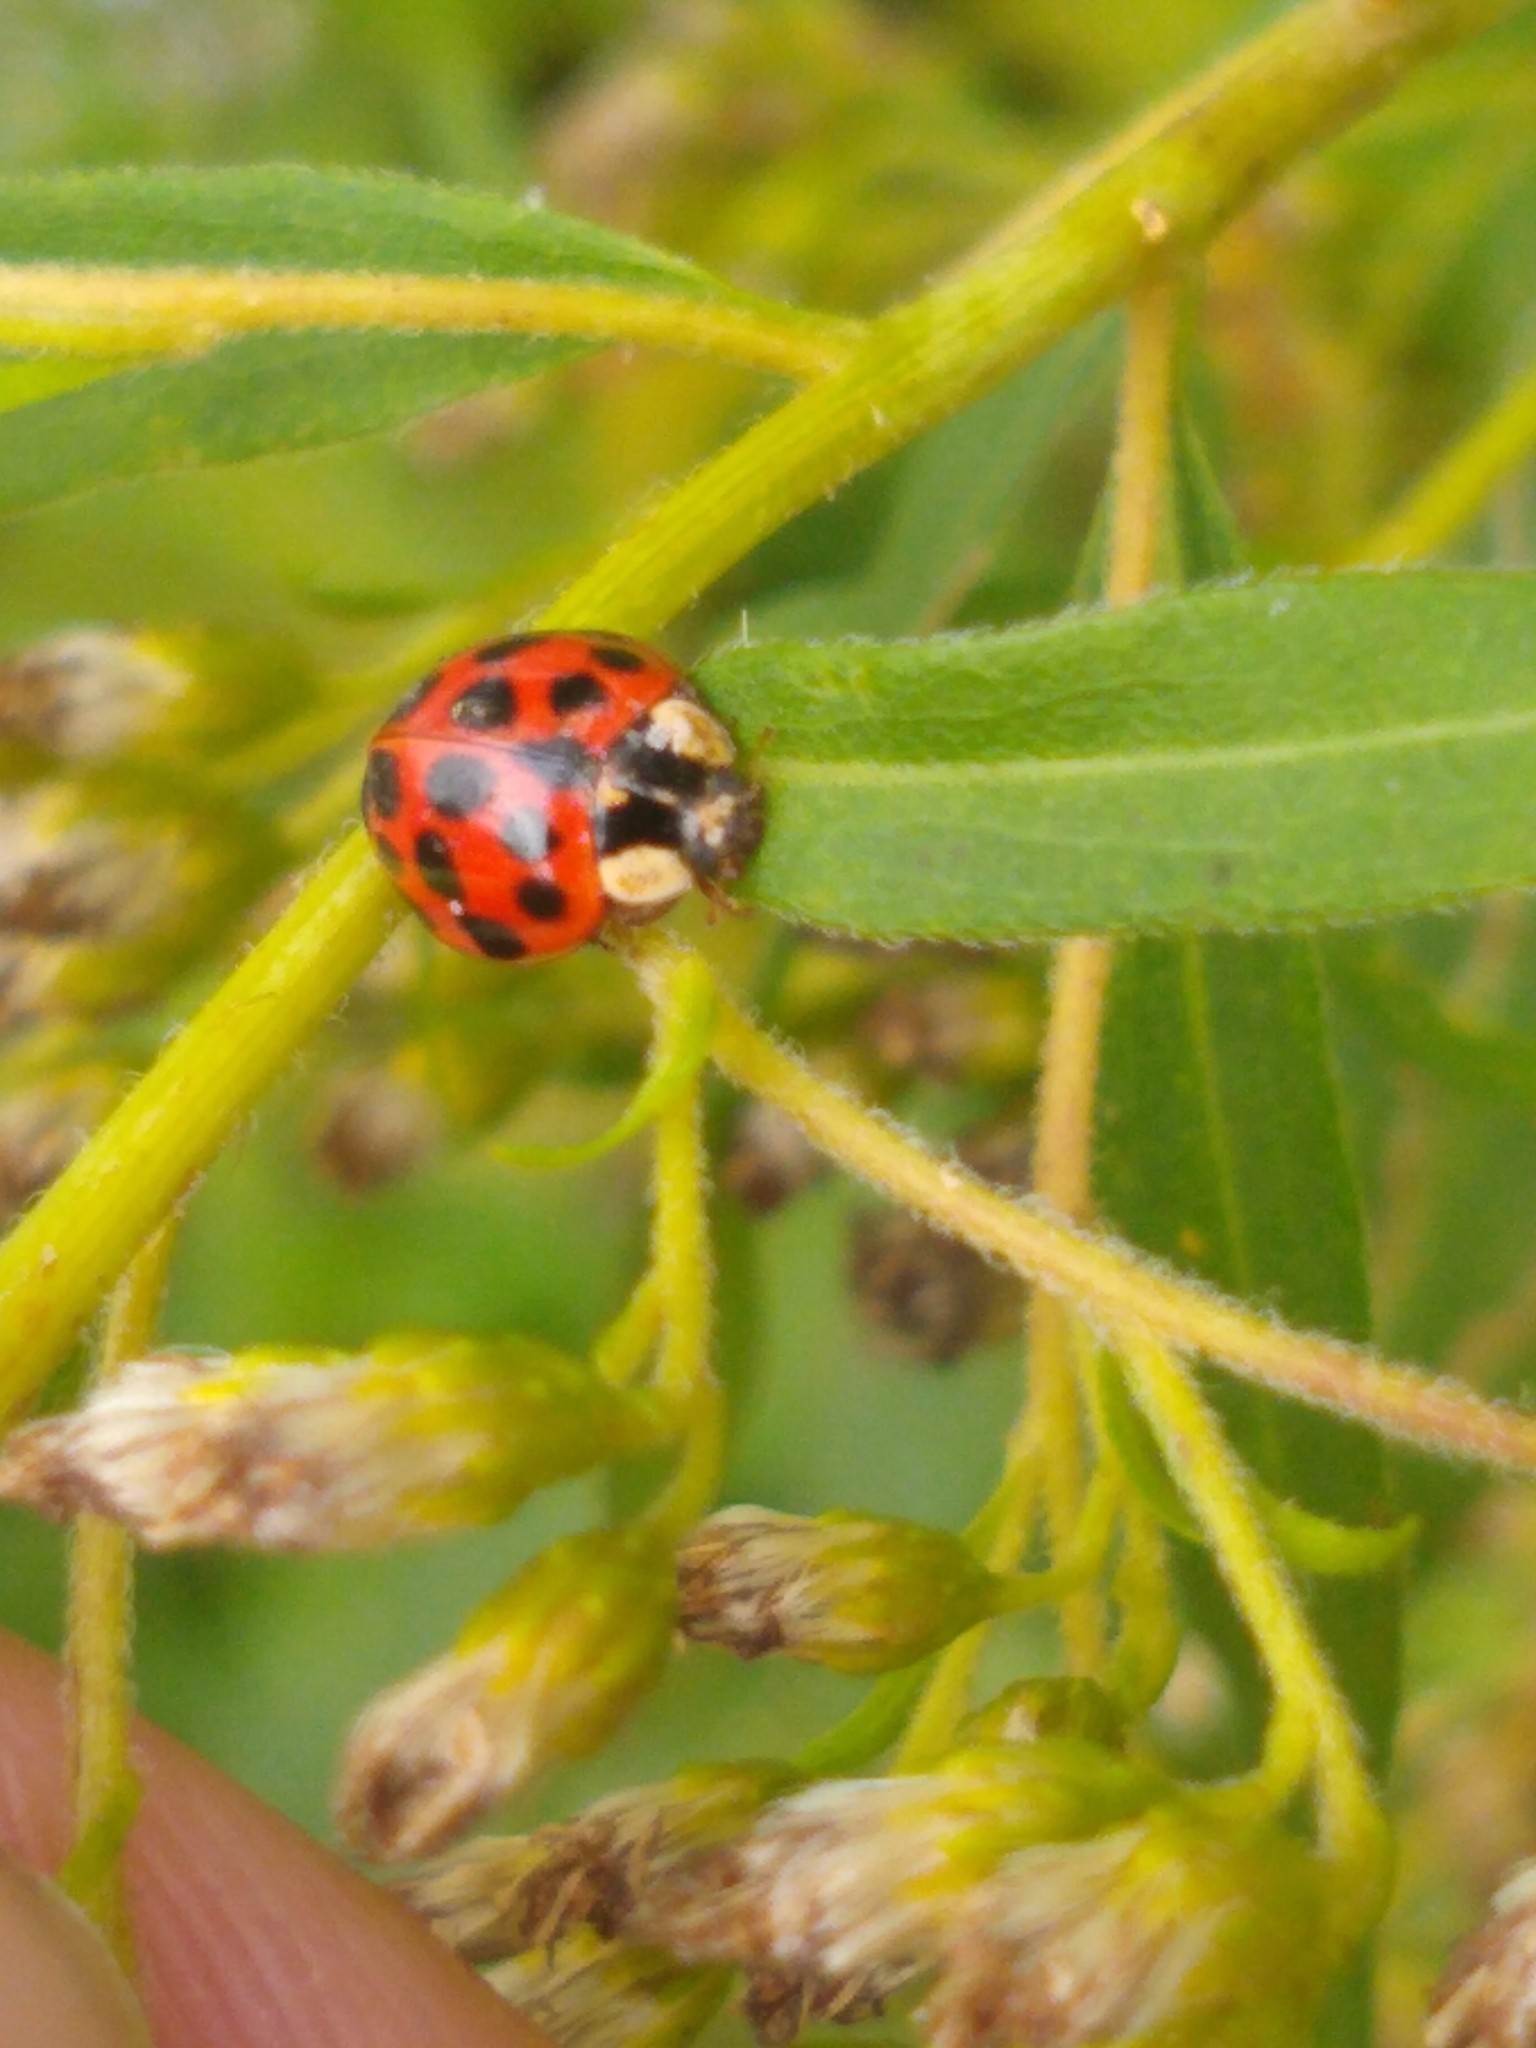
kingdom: Animalia
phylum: Arthropoda
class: Insecta
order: Coleoptera
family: Coccinellidae
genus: Harmonia
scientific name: Harmonia axyridis
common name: Harlequin ladybird
